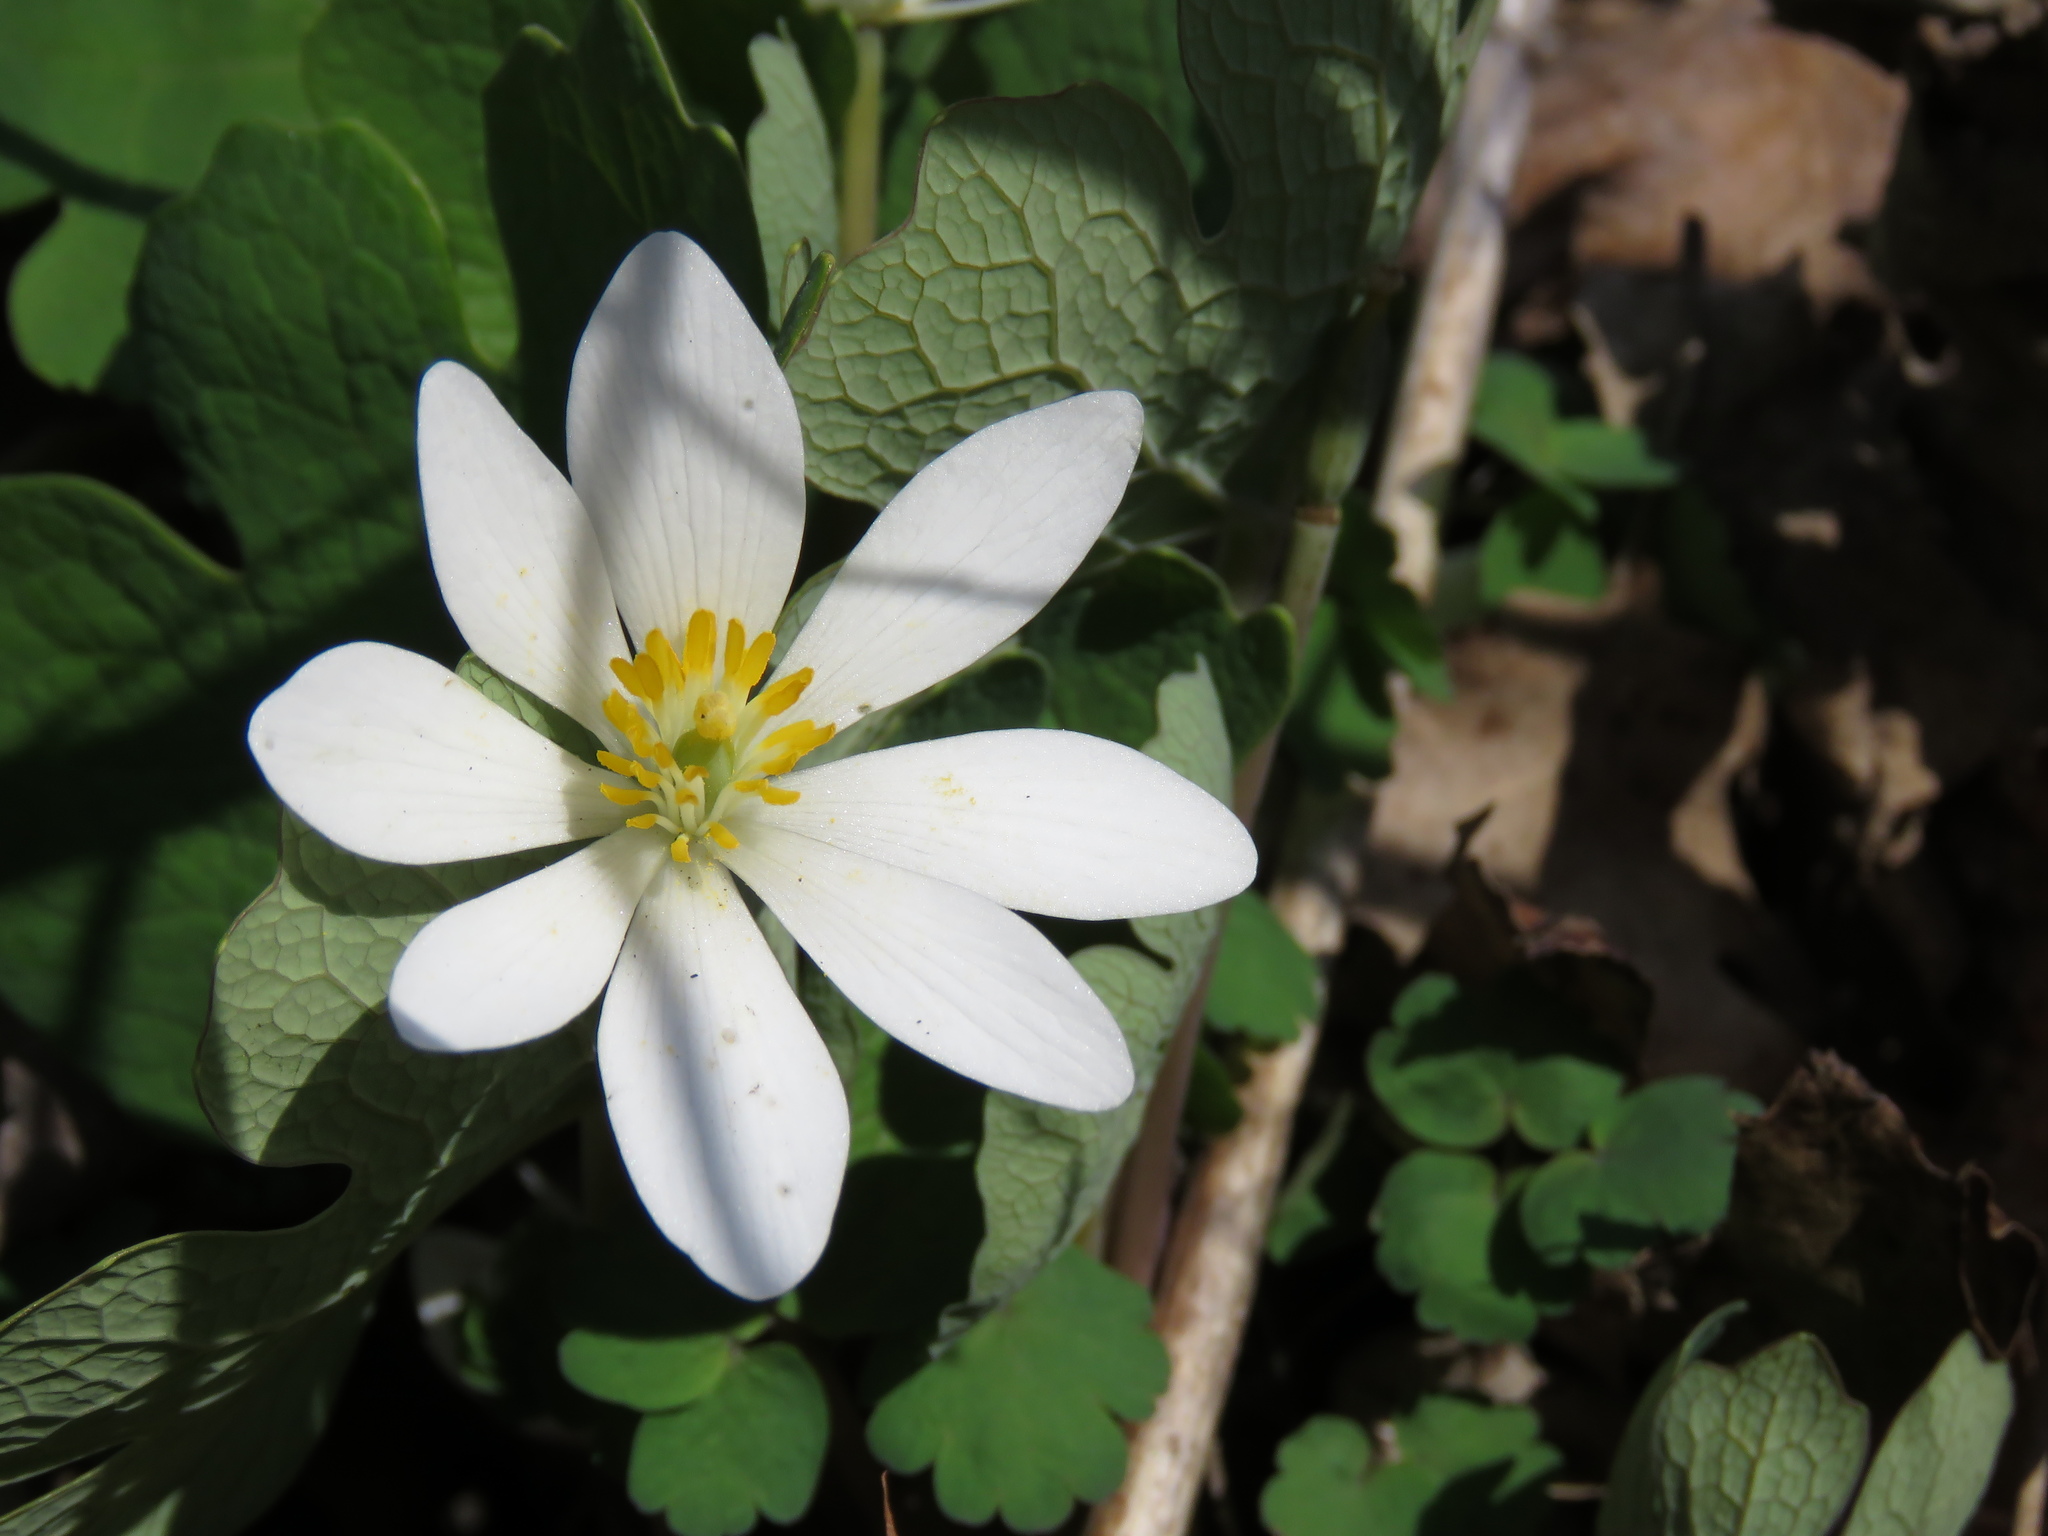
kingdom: Plantae
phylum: Tracheophyta
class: Magnoliopsida
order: Ranunculales
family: Papaveraceae
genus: Sanguinaria
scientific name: Sanguinaria canadensis
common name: Bloodroot
